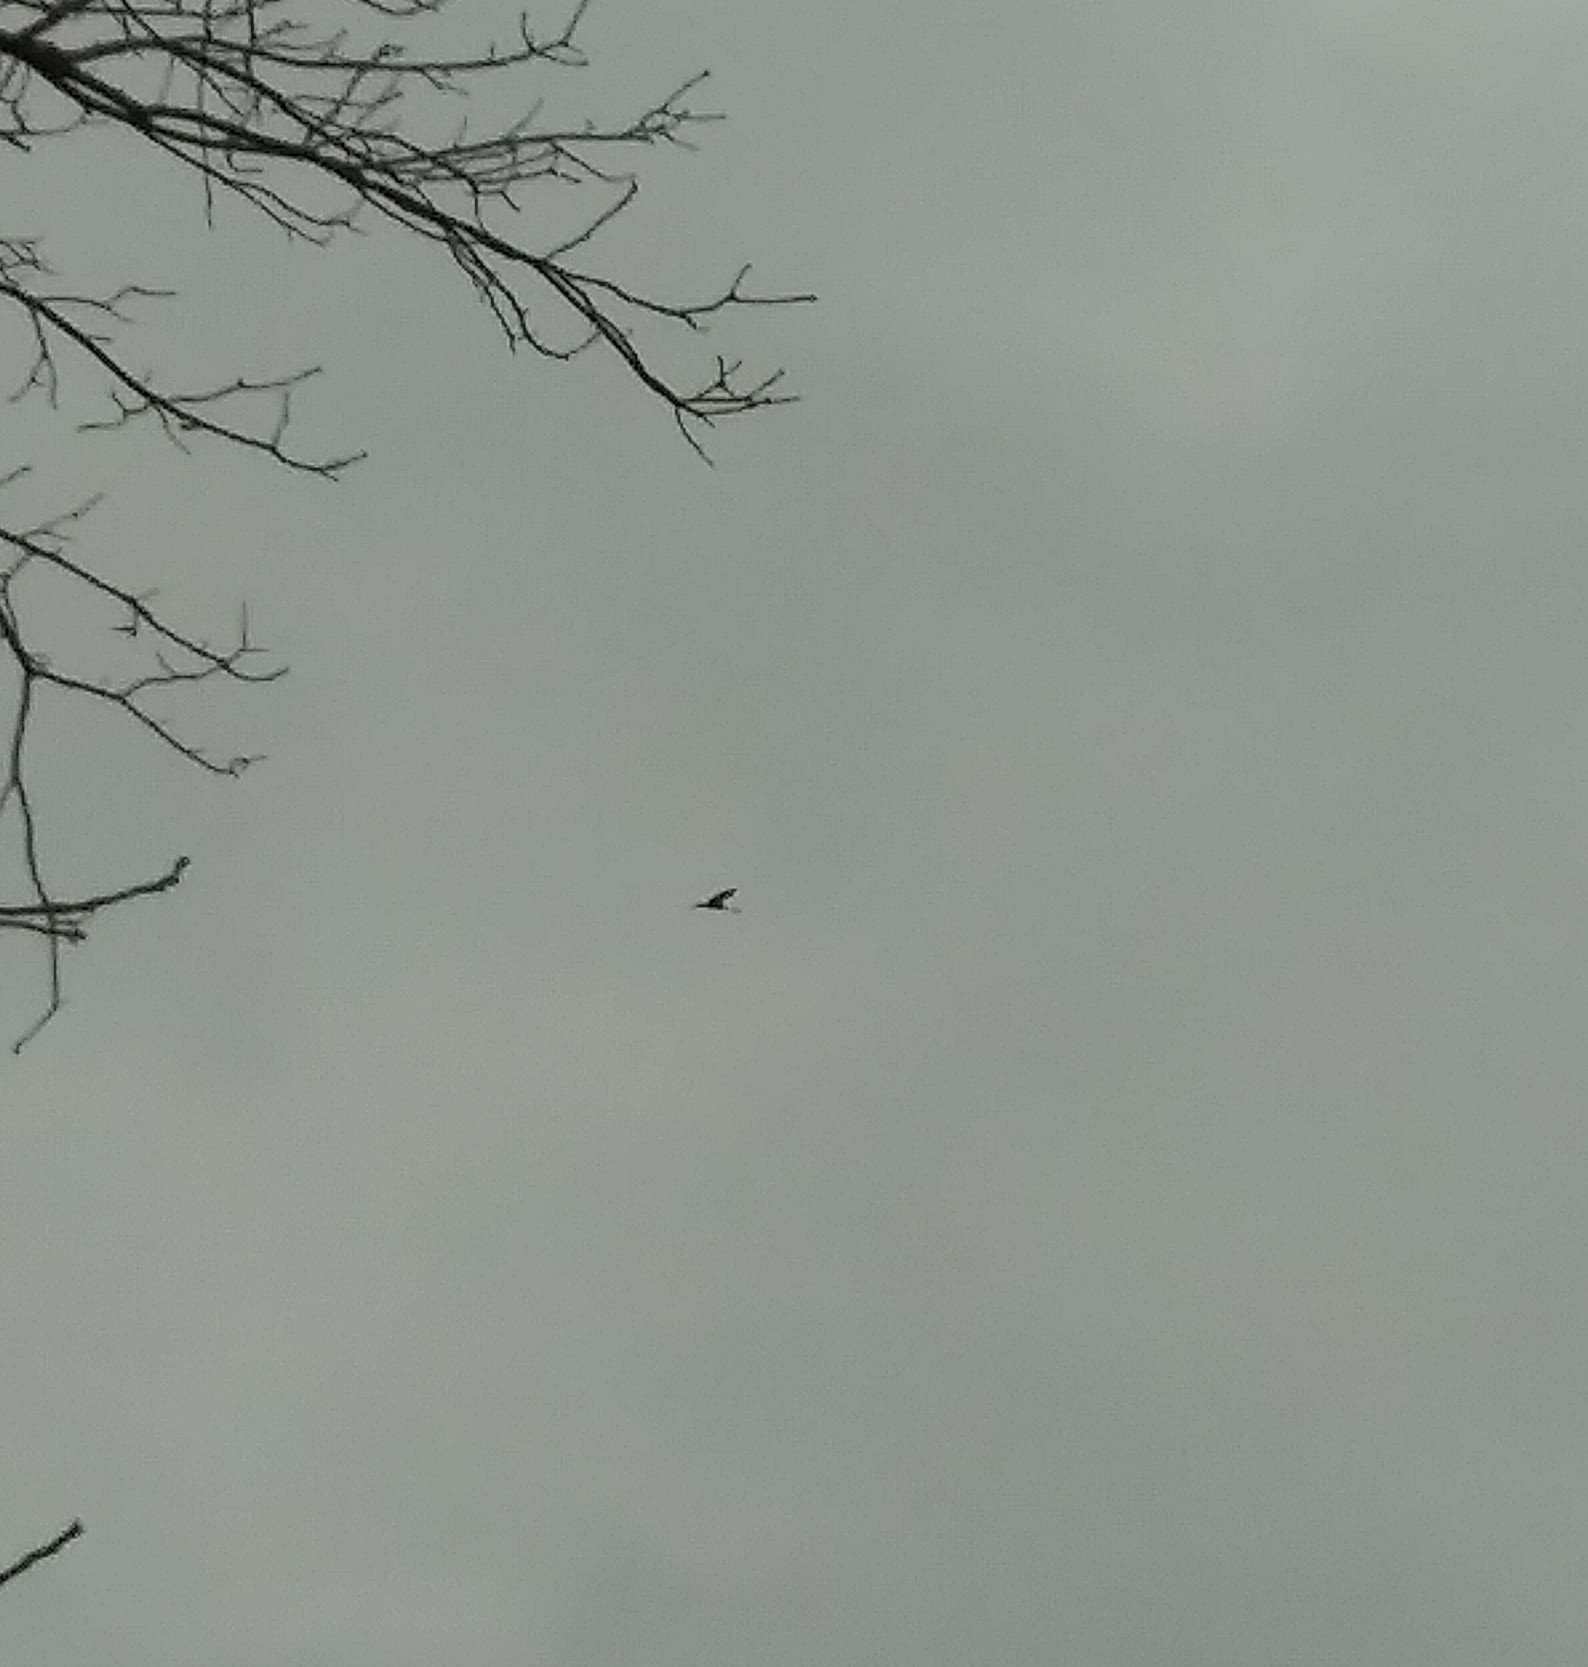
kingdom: Animalia
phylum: Chordata
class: Aves
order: Gruiformes
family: Gruidae
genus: Grus
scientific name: Grus canadensis
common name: Sandhill crane
